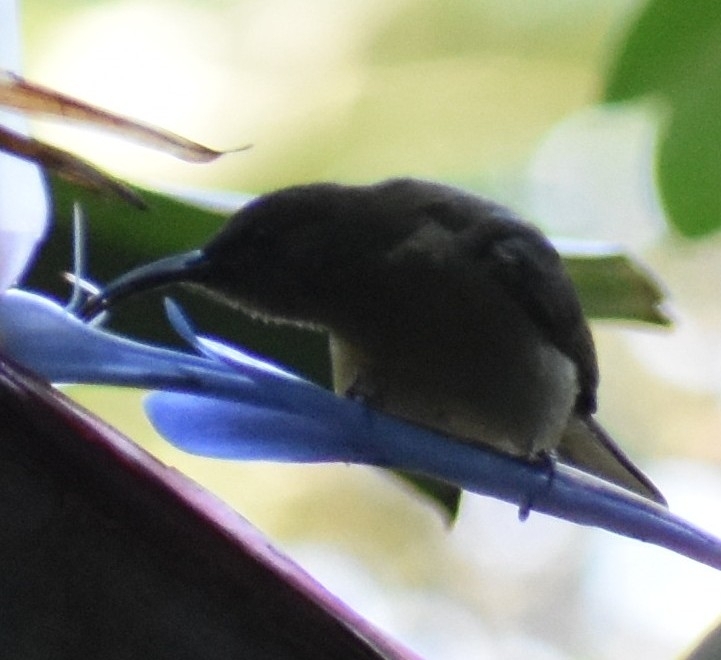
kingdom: Animalia
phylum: Chordata
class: Aves
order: Passeriformes
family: Nectariniidae
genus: Cyanomitra
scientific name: Cyanomitra olivacea
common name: Olive sunbird
